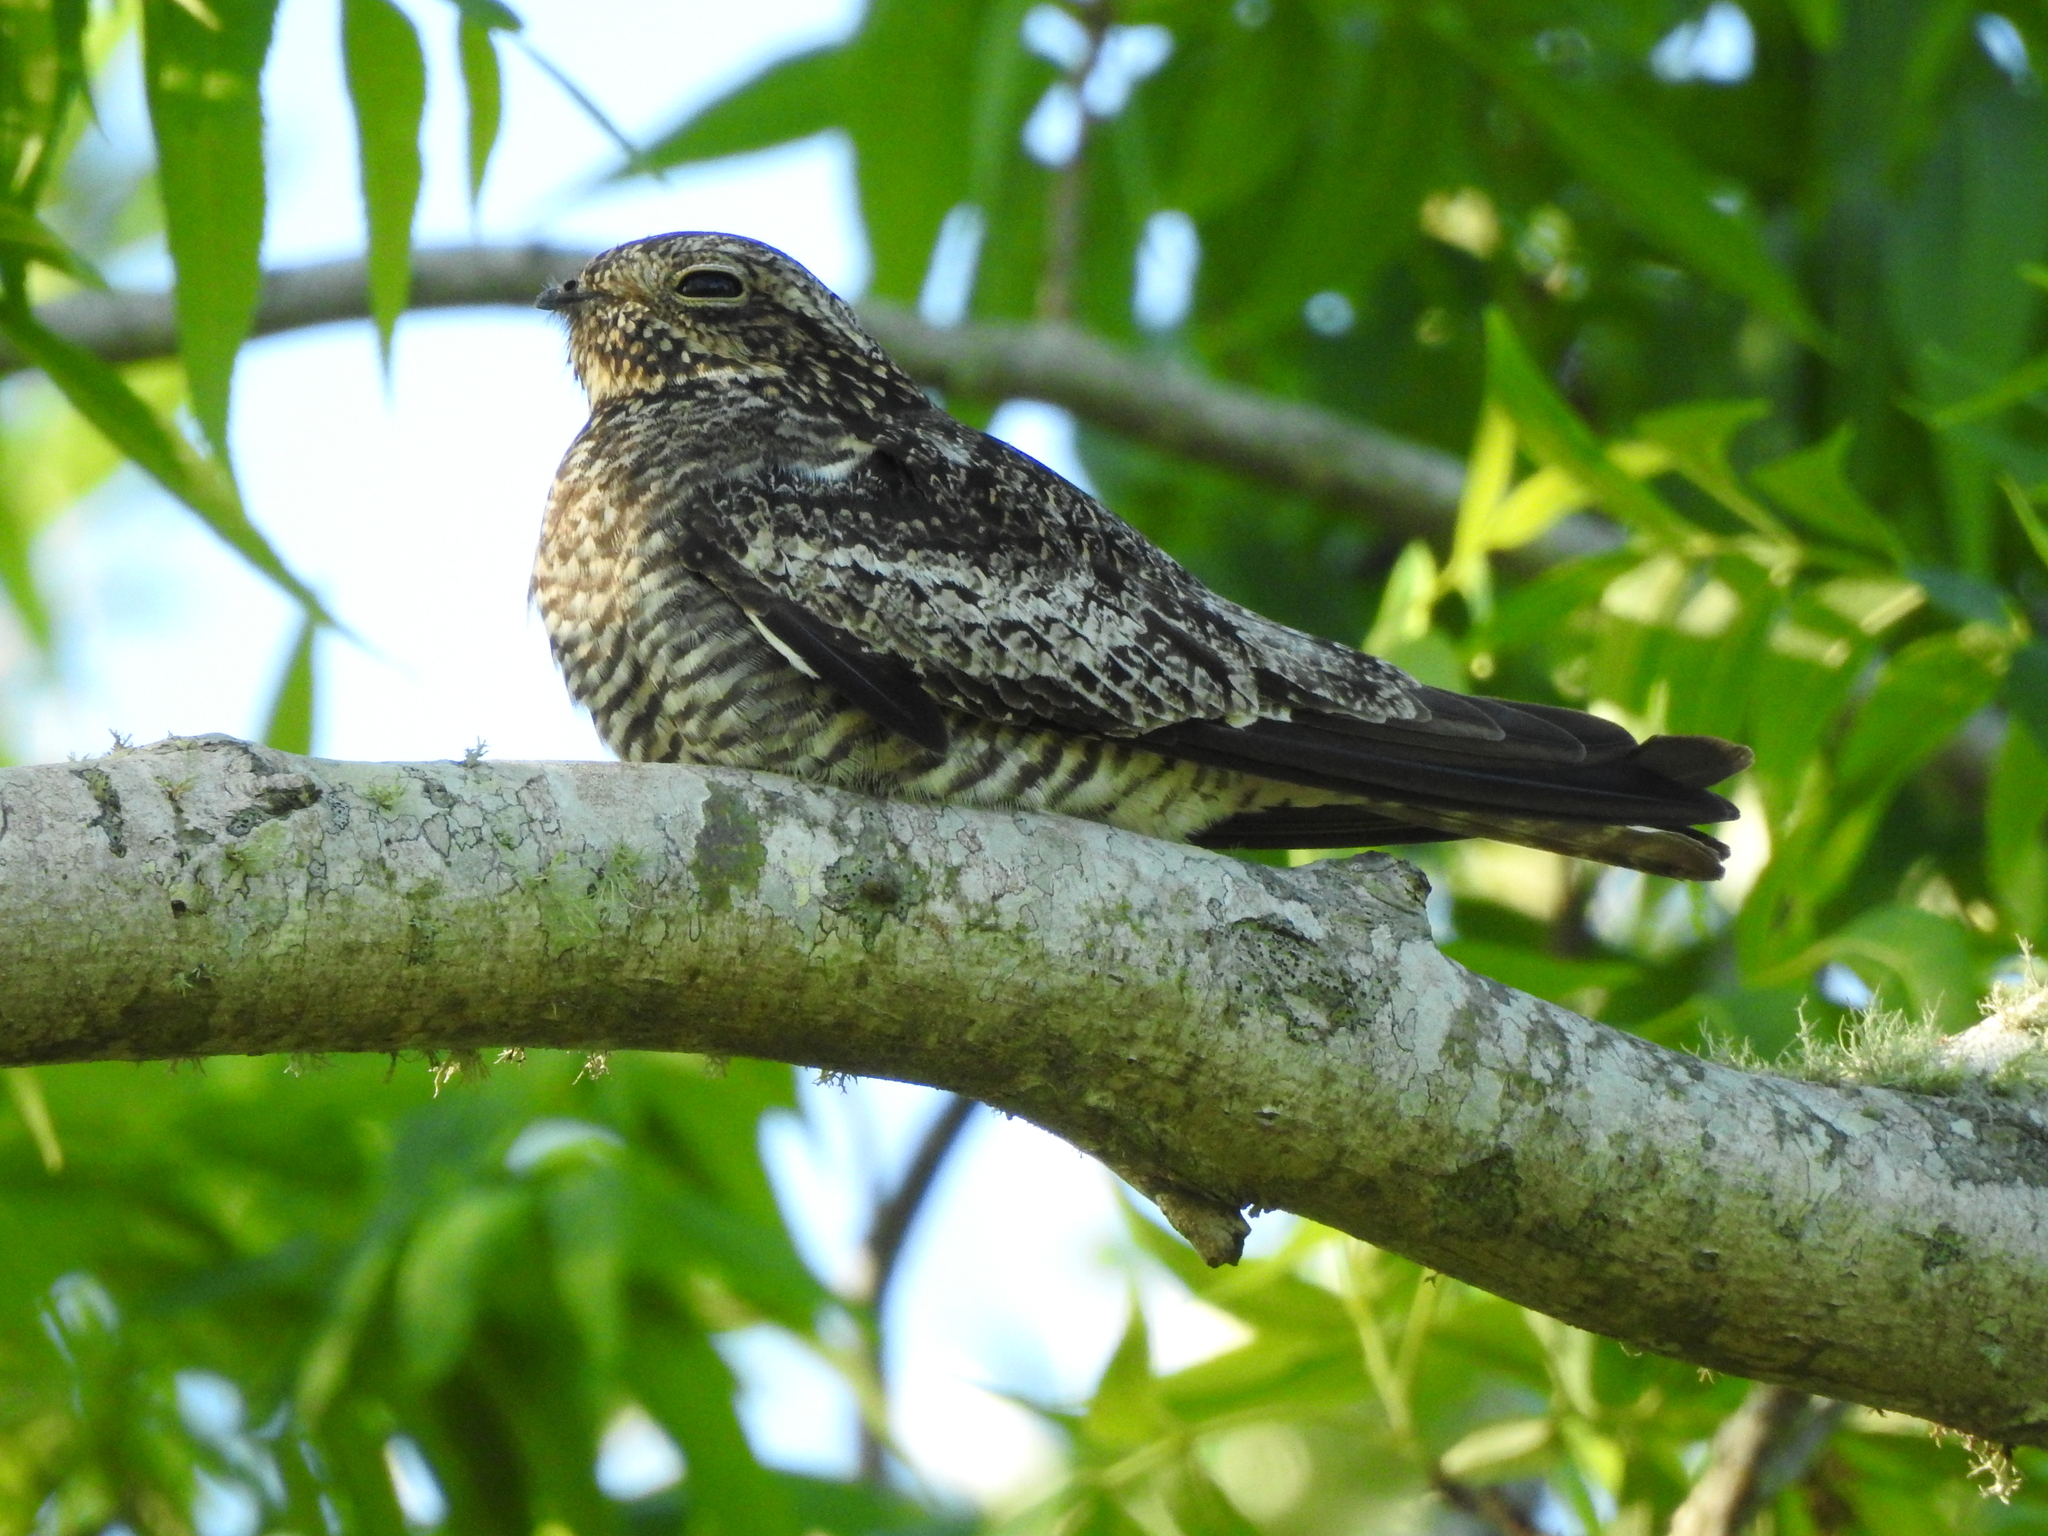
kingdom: Animalia
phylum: Chordata
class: Aves
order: Caprimulgiformes
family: Caprimulgidae
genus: Chordeiles
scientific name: Chordeiles minor
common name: Common nighthawk
